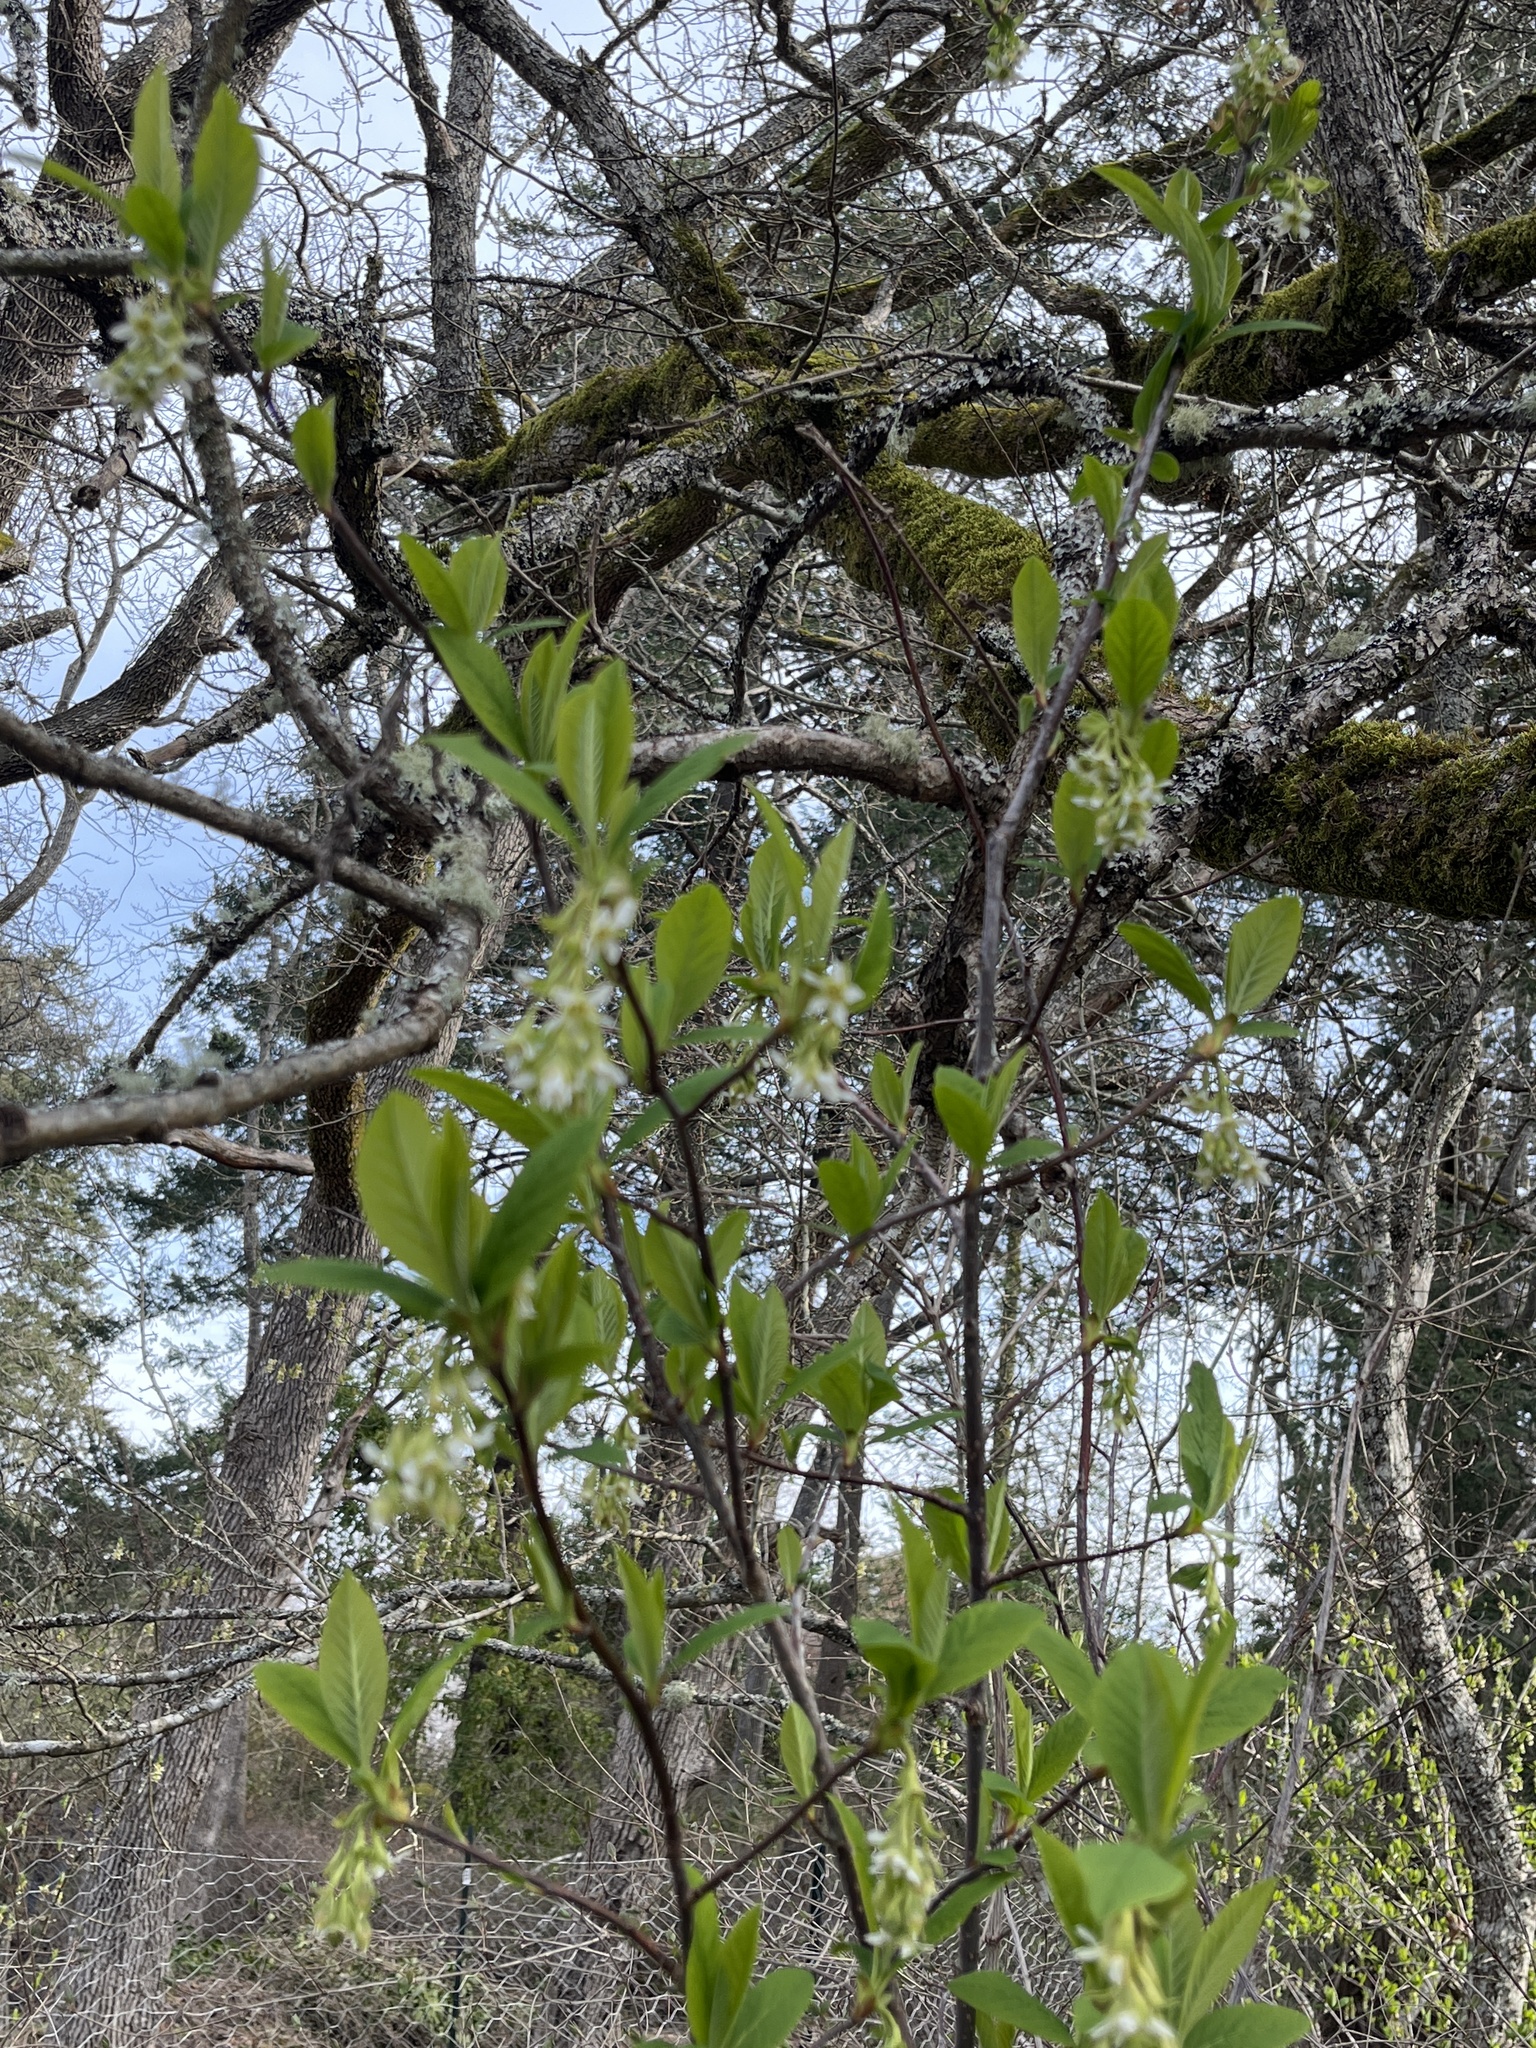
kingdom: Plantae
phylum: Tracheophyta
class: Magnoliopsida
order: Rosales
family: Rosaceae
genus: Oemleria
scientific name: Oemleria cerasiformis
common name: Osoberry
